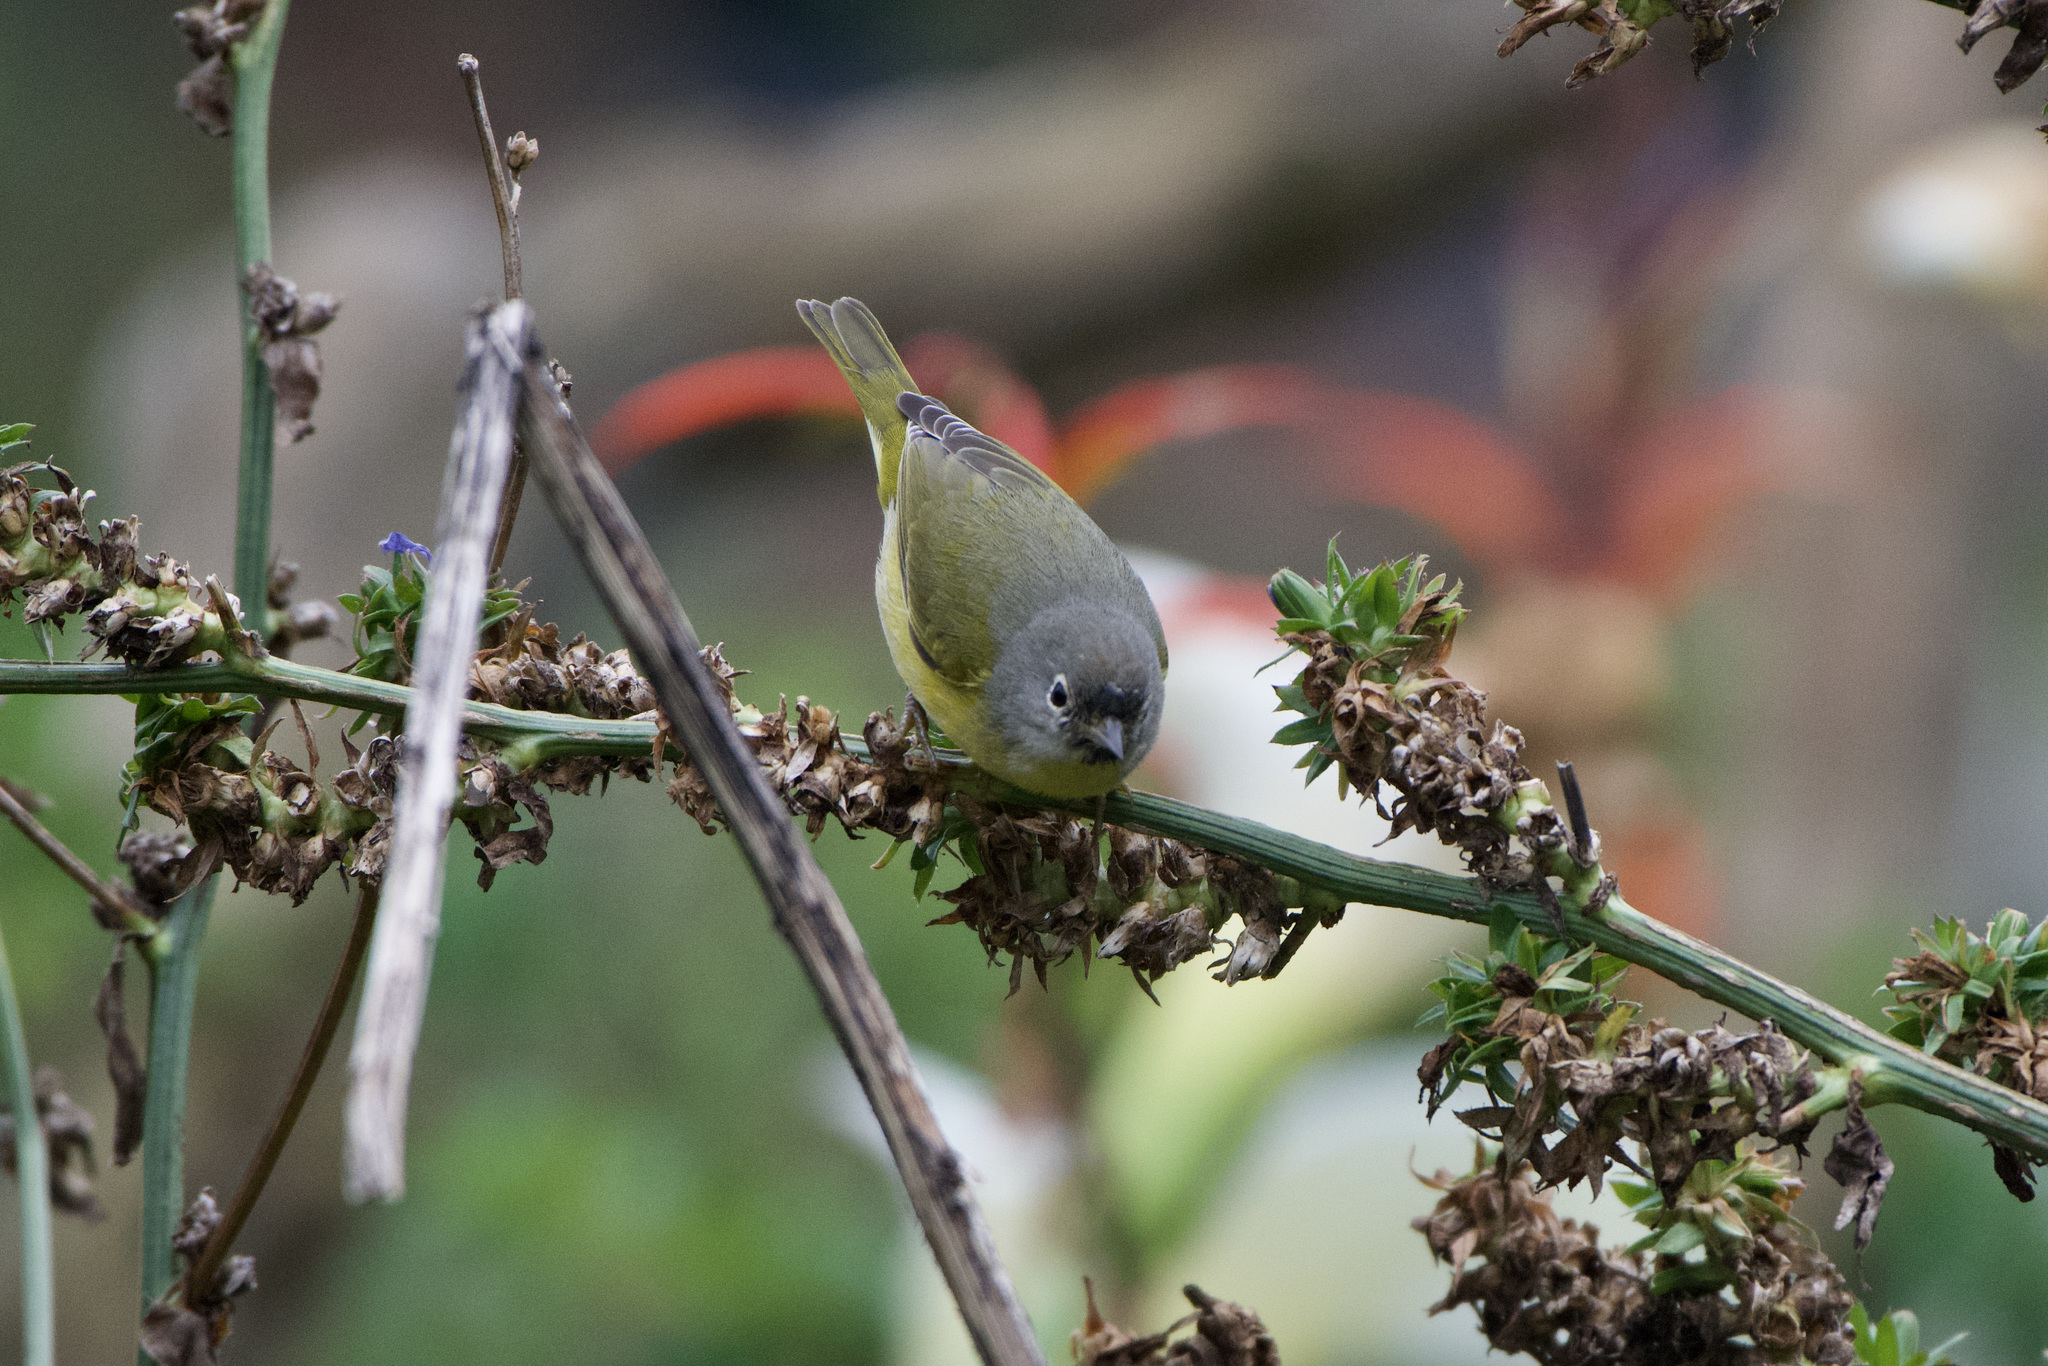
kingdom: Animalia
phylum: Chordata
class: Aves
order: Passeriformes
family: Parulidae
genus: Leiothlypis
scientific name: Leiothlypis ruficapilla
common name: Nashville warbler
